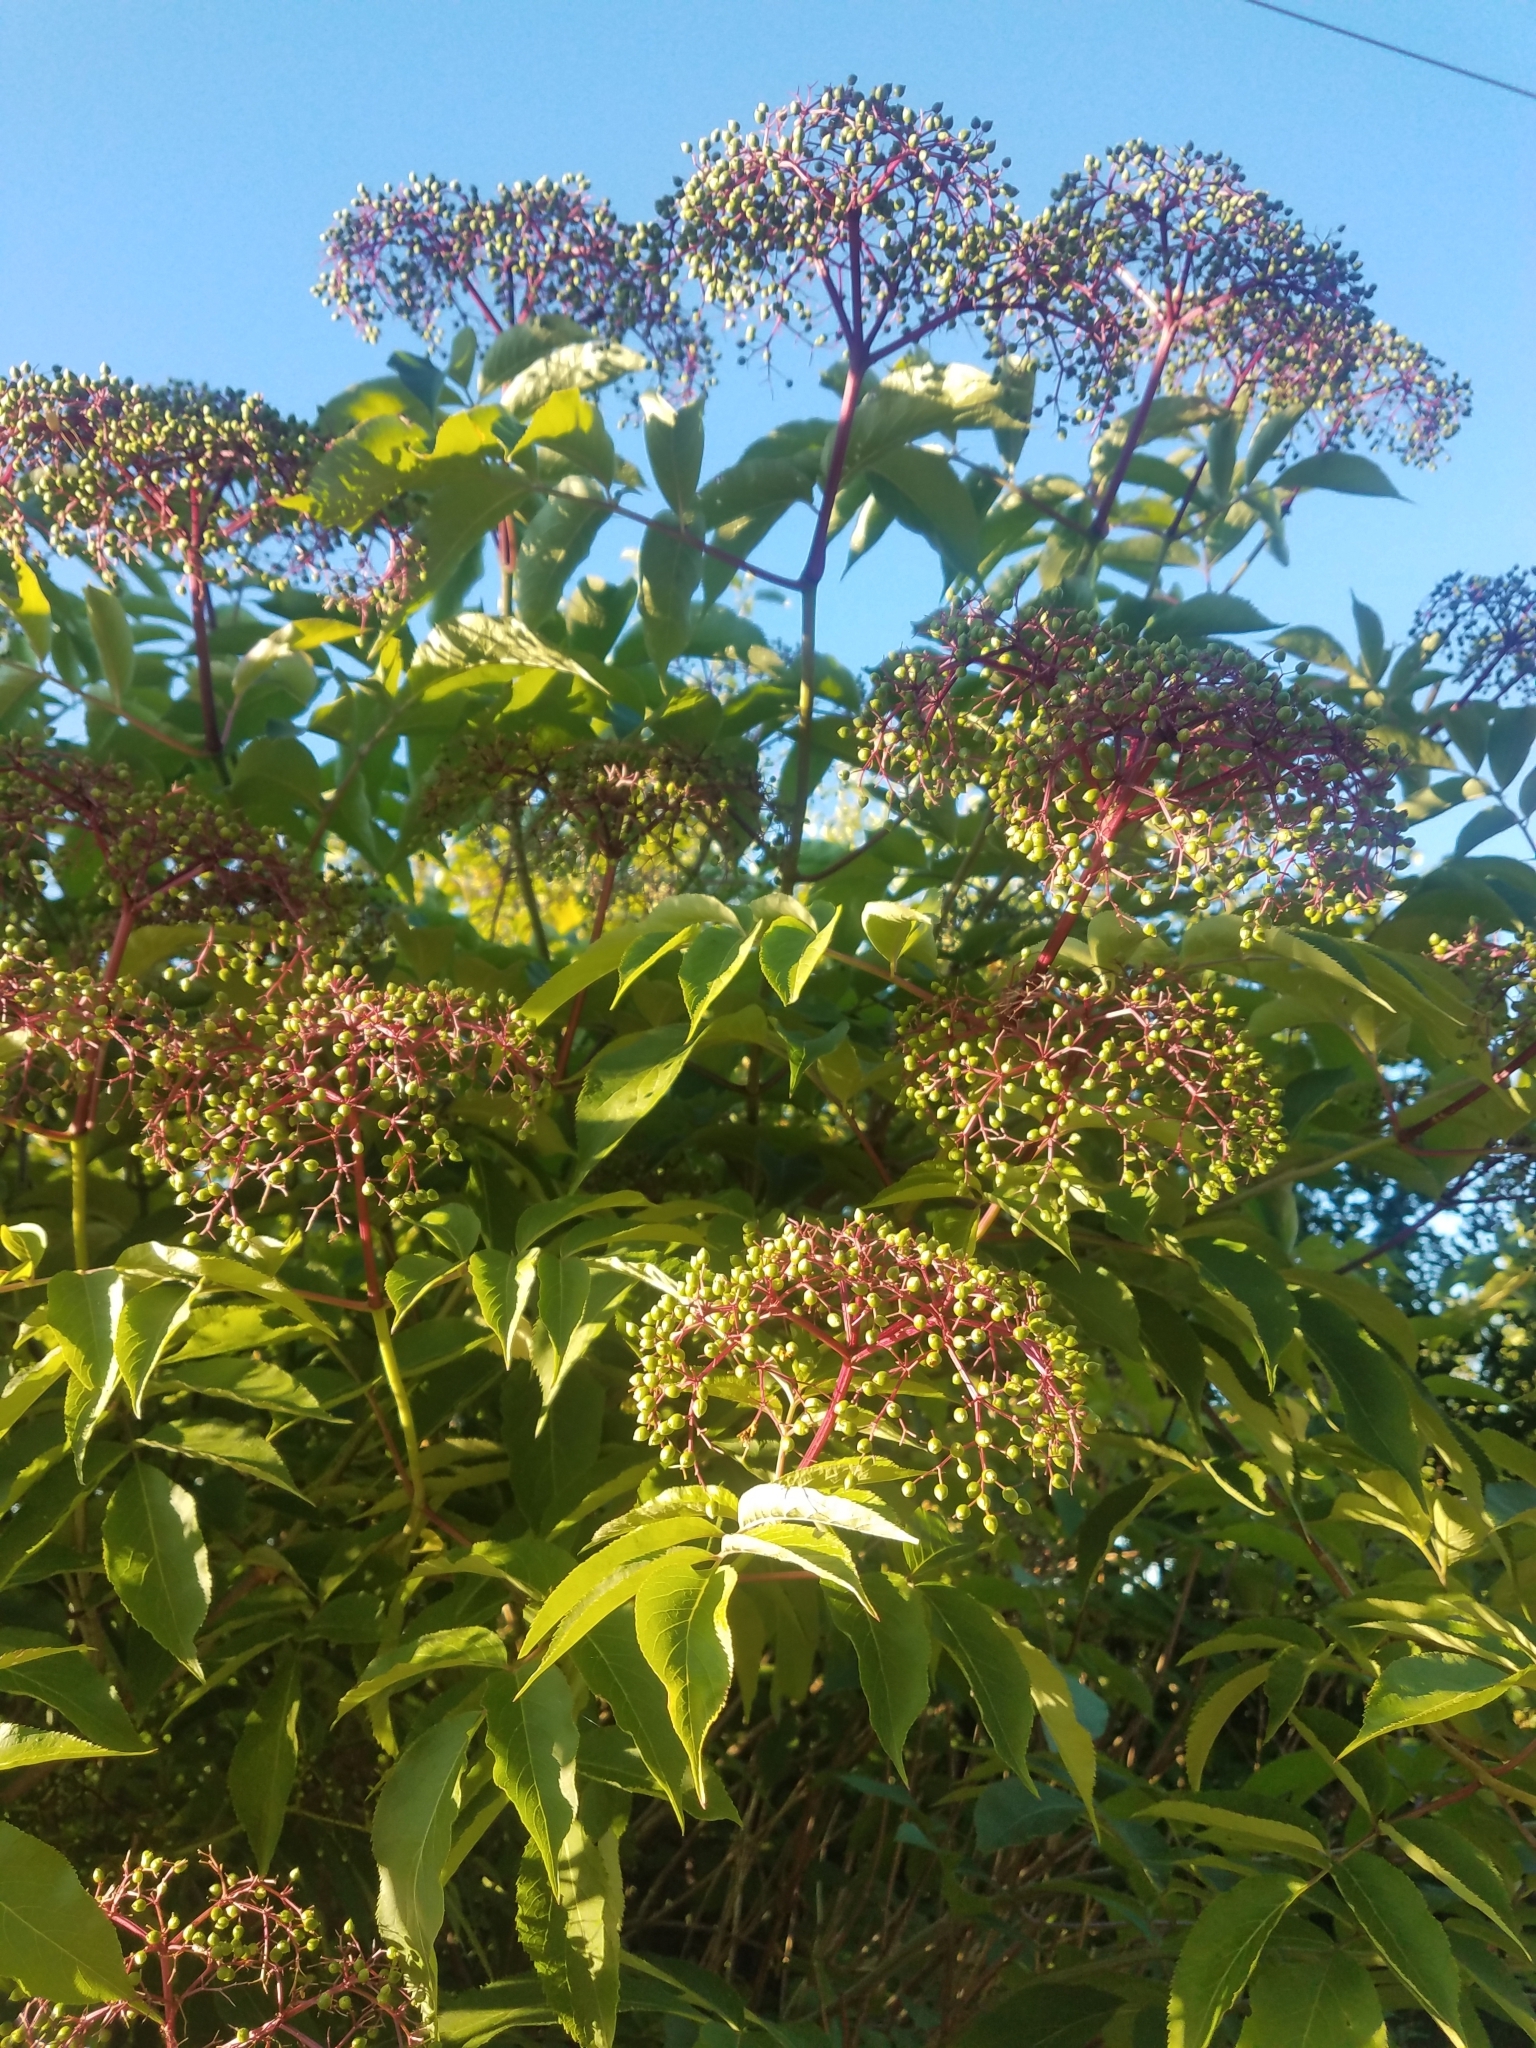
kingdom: Plantae
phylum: Tracheophyta
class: Magnoliopsida
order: Dipsacales
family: Viburnaceae
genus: Sambucus
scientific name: Sambucus canadensis
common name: American elder
